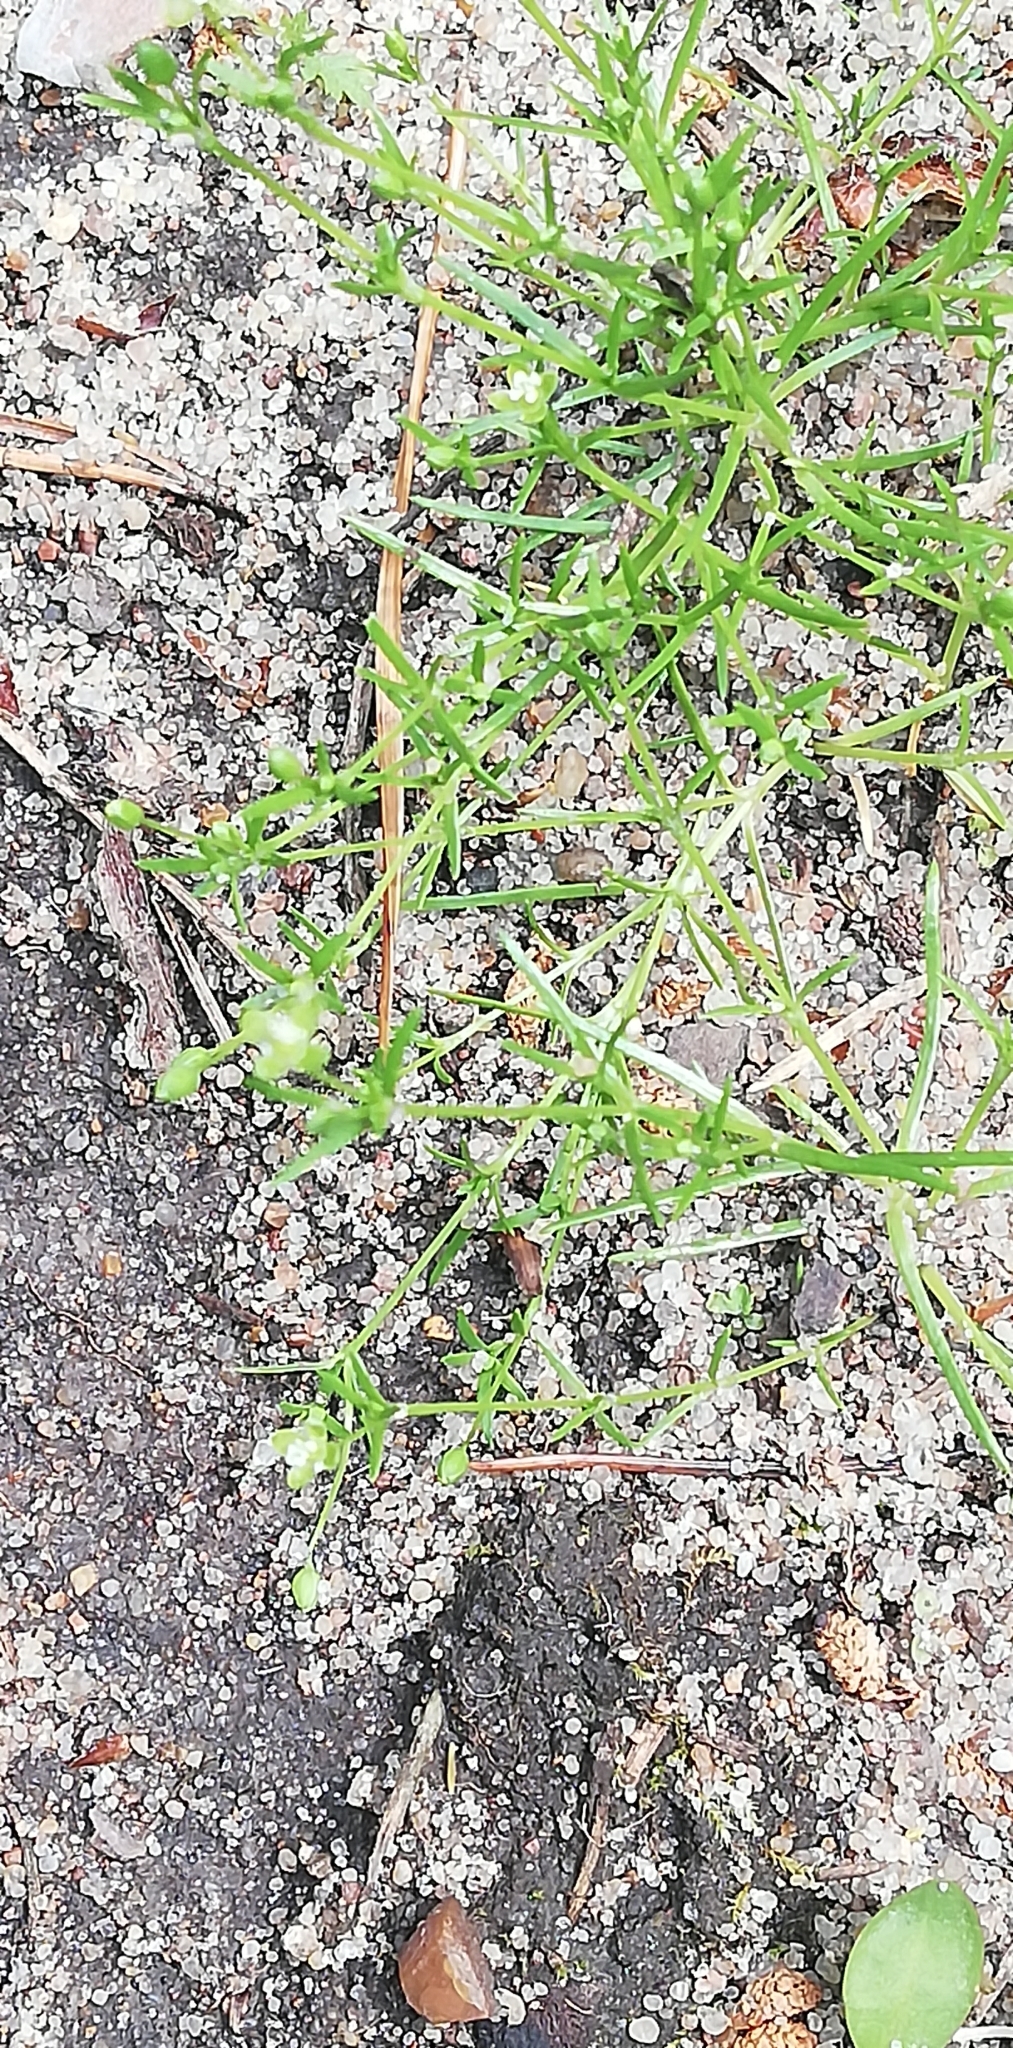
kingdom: Plantae
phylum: Tracheophyta
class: Magnoliopsida
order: Caryophyllales
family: Caryophyllaceae
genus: Sagina
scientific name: Sagina procumbens
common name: Procumbent pearlwort
